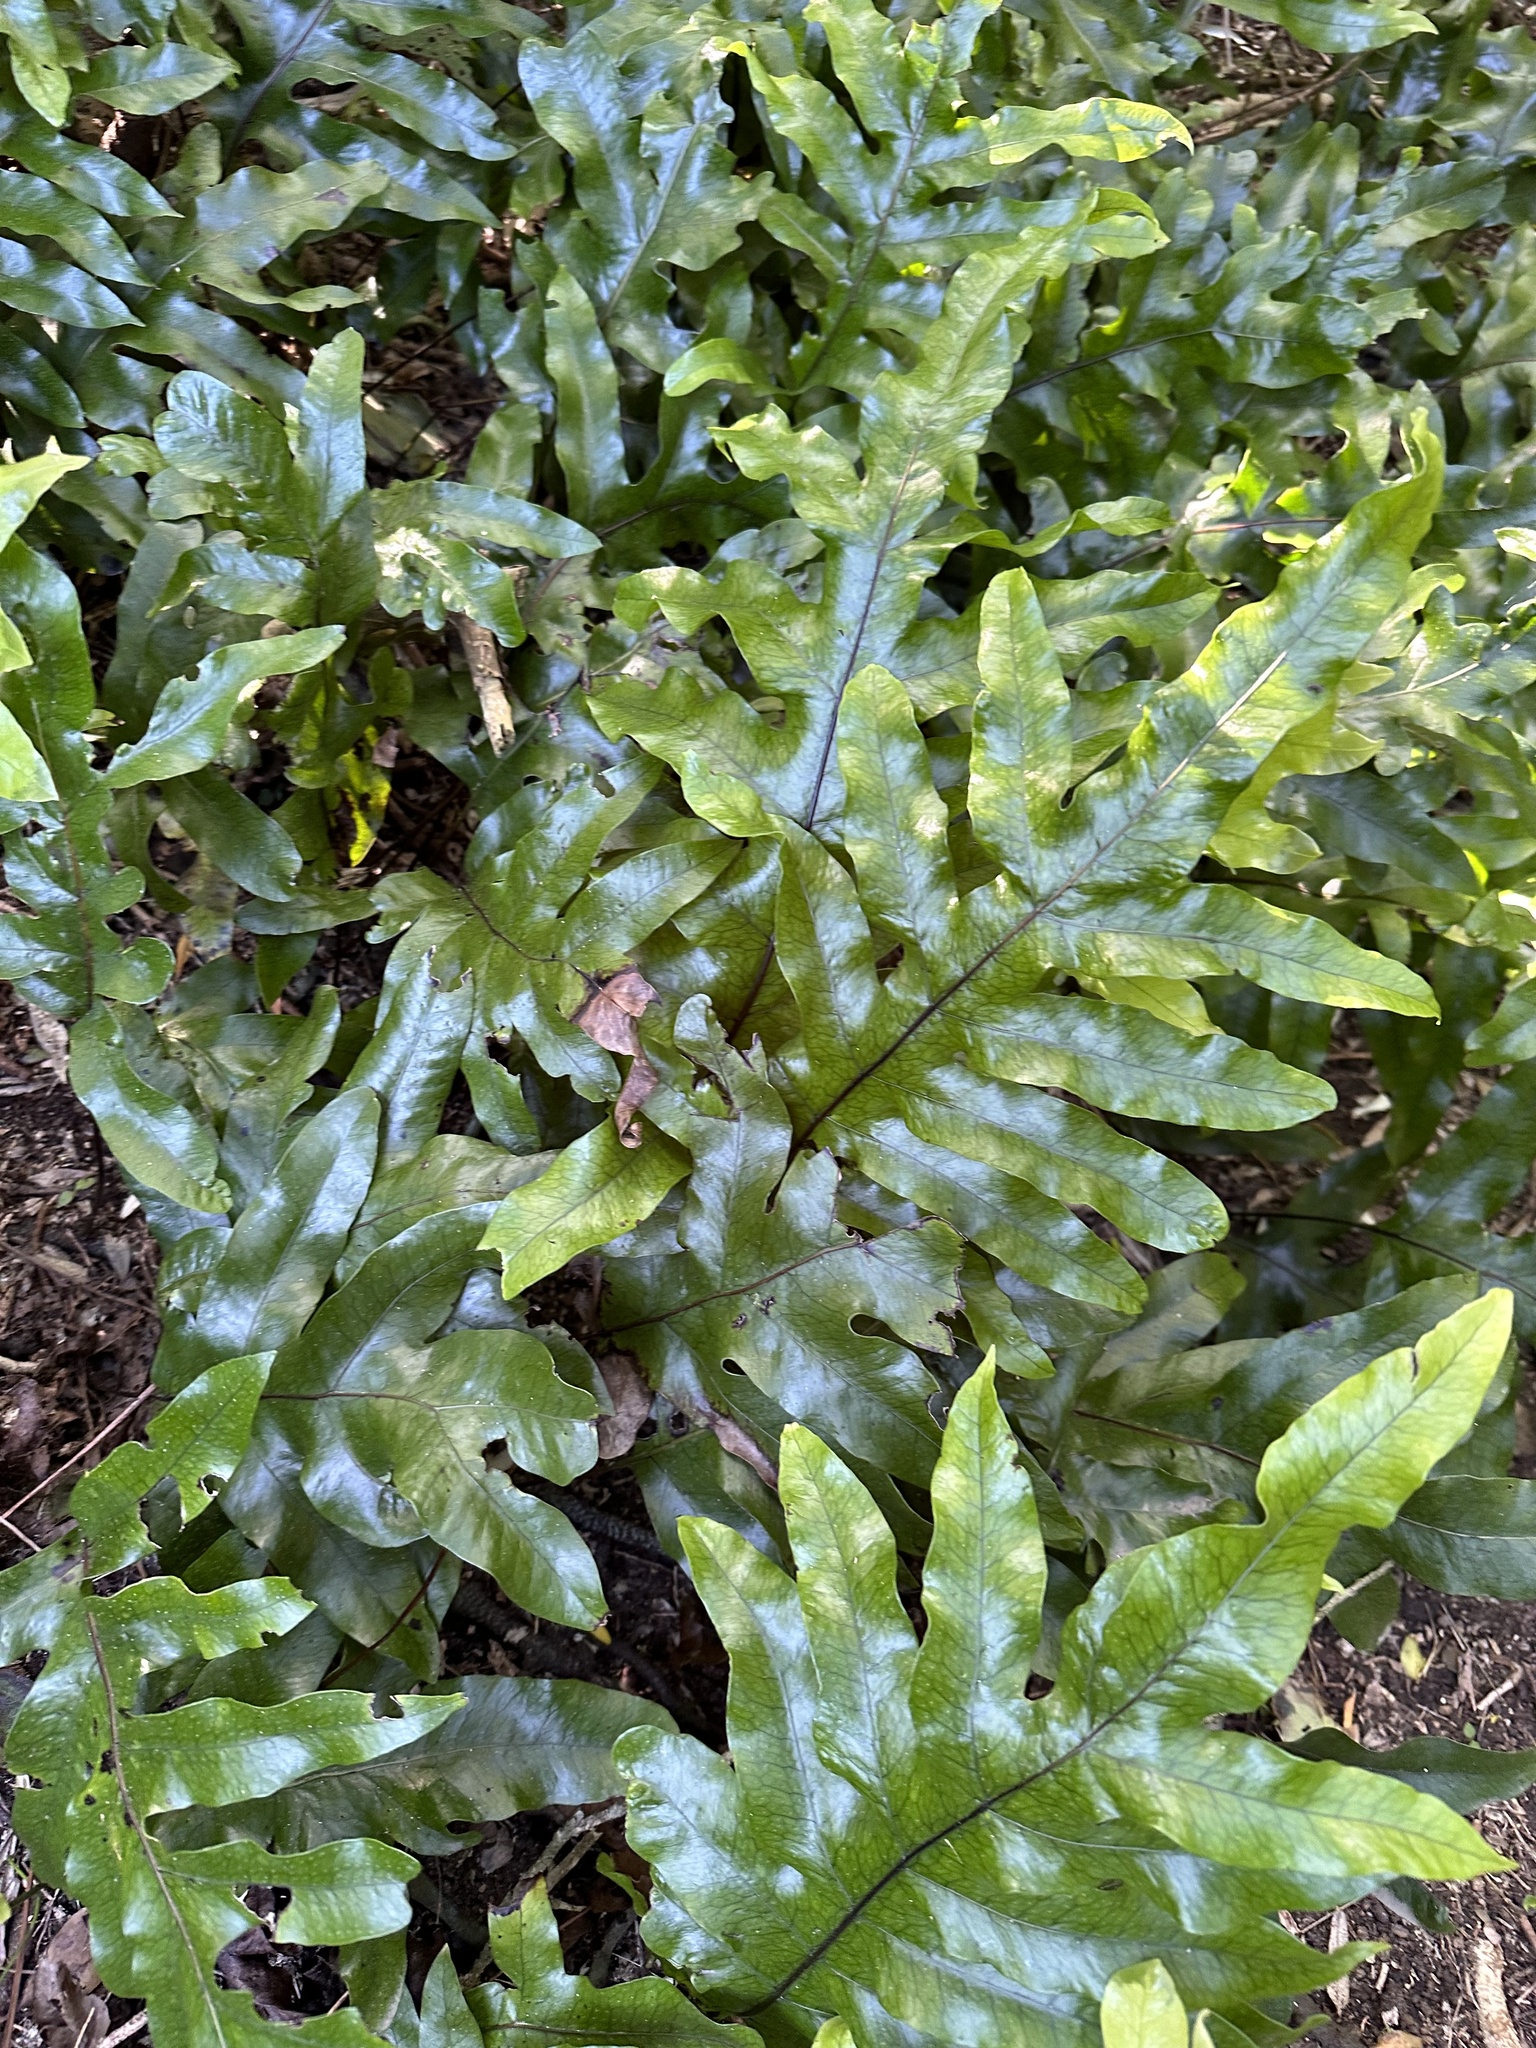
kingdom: Plantae
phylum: Tracheophyta
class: Polypodiopsida
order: Polypodiales
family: Polypodiaceae
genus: Lecanopteris
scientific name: Lecanopteris pustulata
